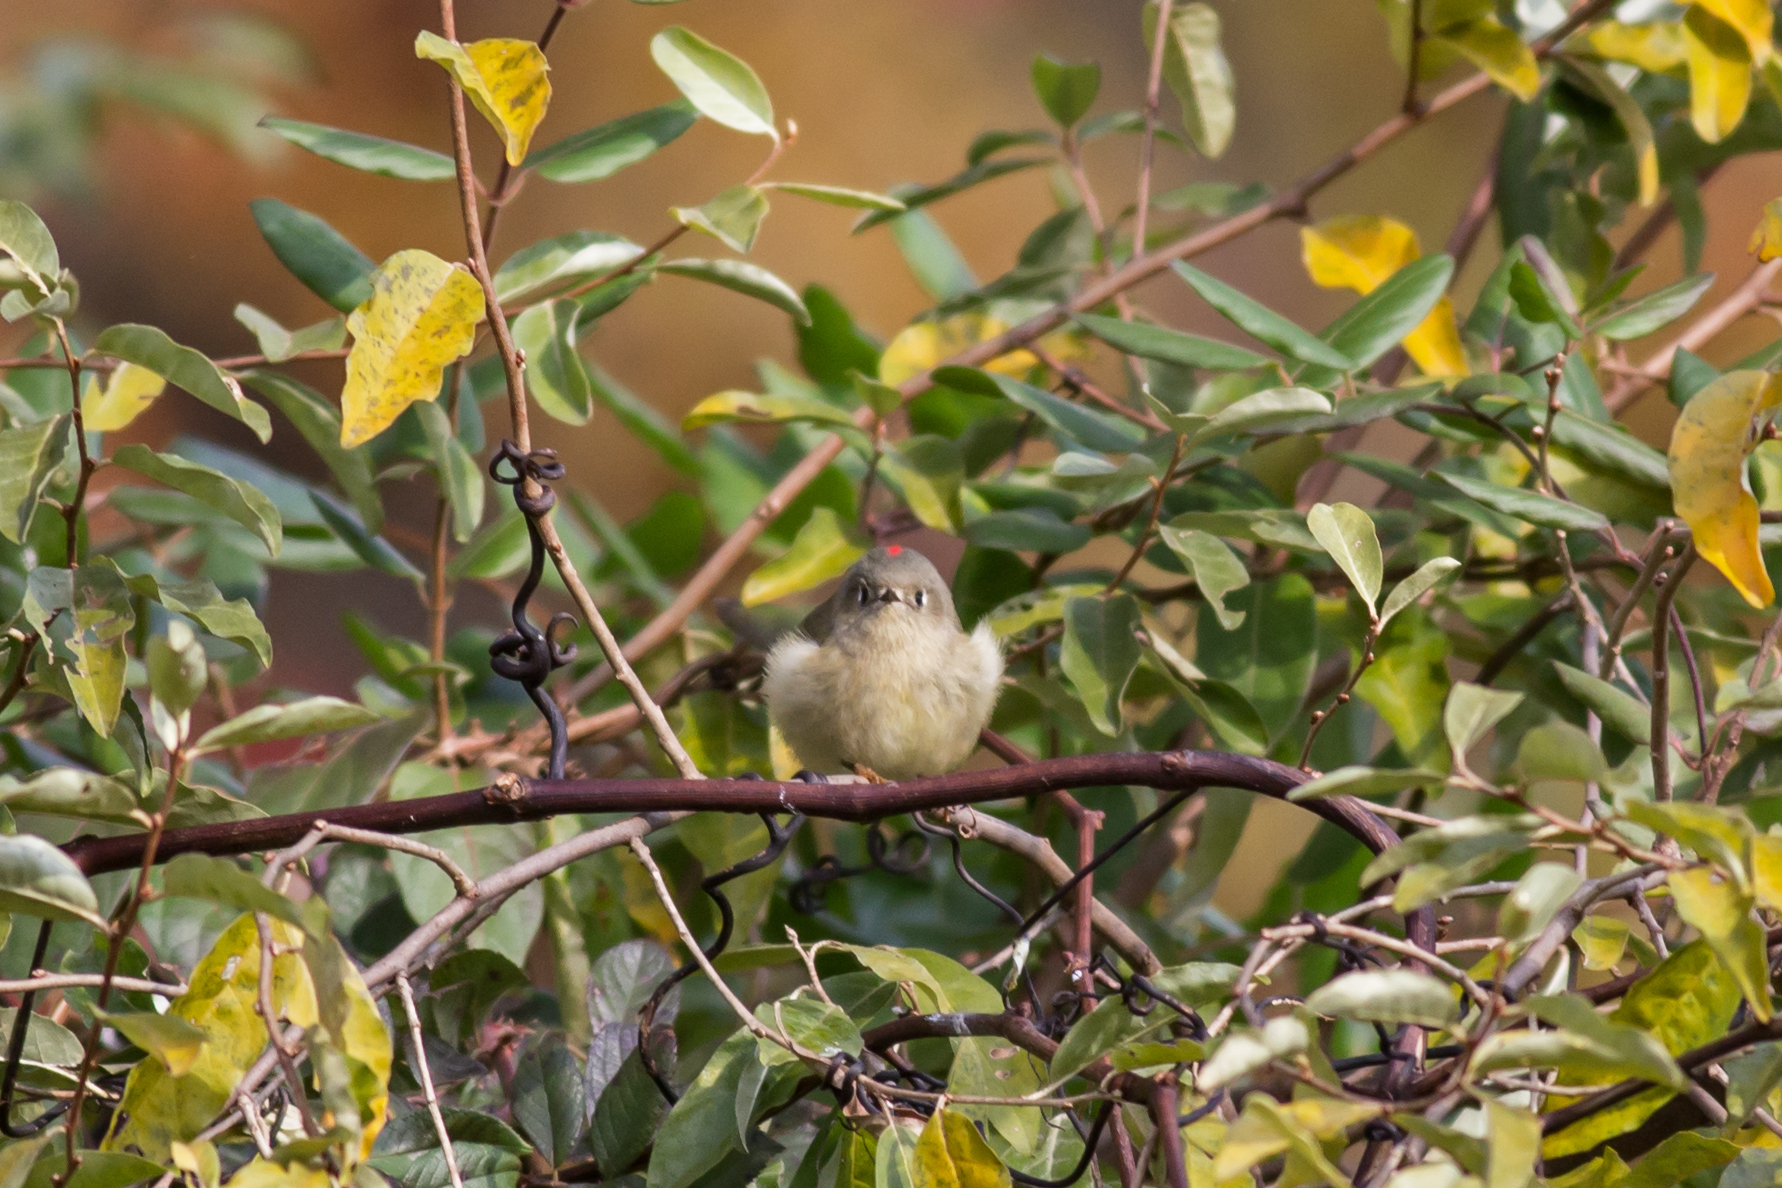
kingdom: Animalia
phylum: Chordata
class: Aves
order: Passeriformes
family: Regulidae
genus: Regulus
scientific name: Regulus calendula
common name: Ruby-crowned kinglet
